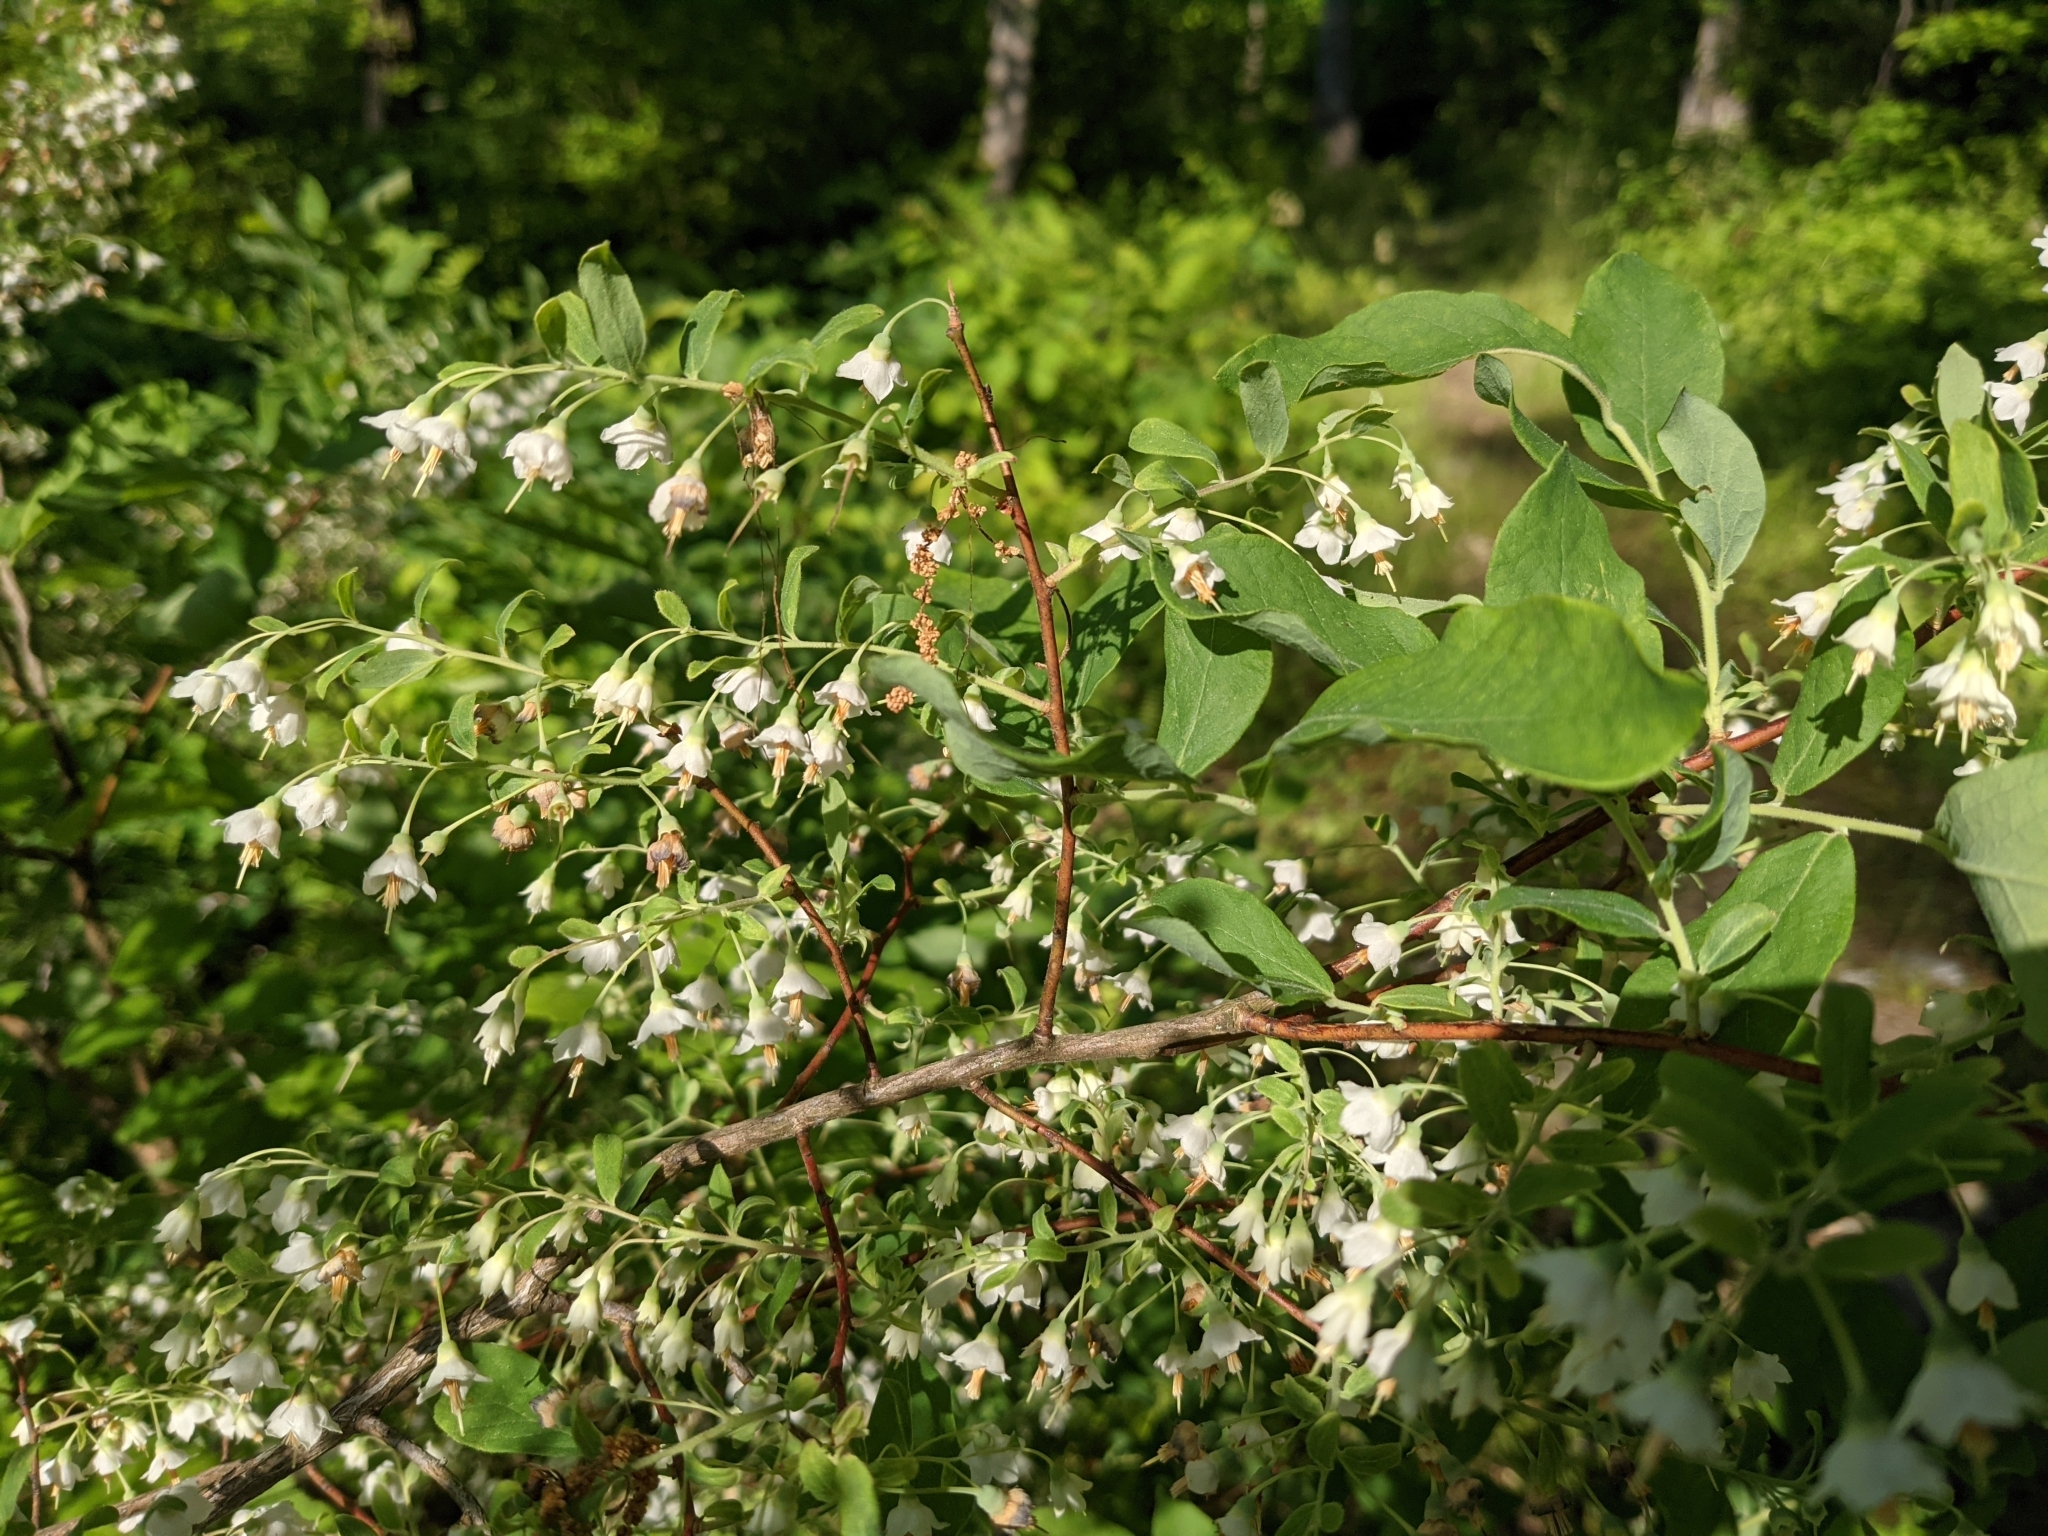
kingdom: Plantae
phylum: Tracheophyta
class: Magnoliopsida
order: Ericales
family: Ericaceae
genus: Vaccinium
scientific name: Vaccinium stamineum
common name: Deerberry
